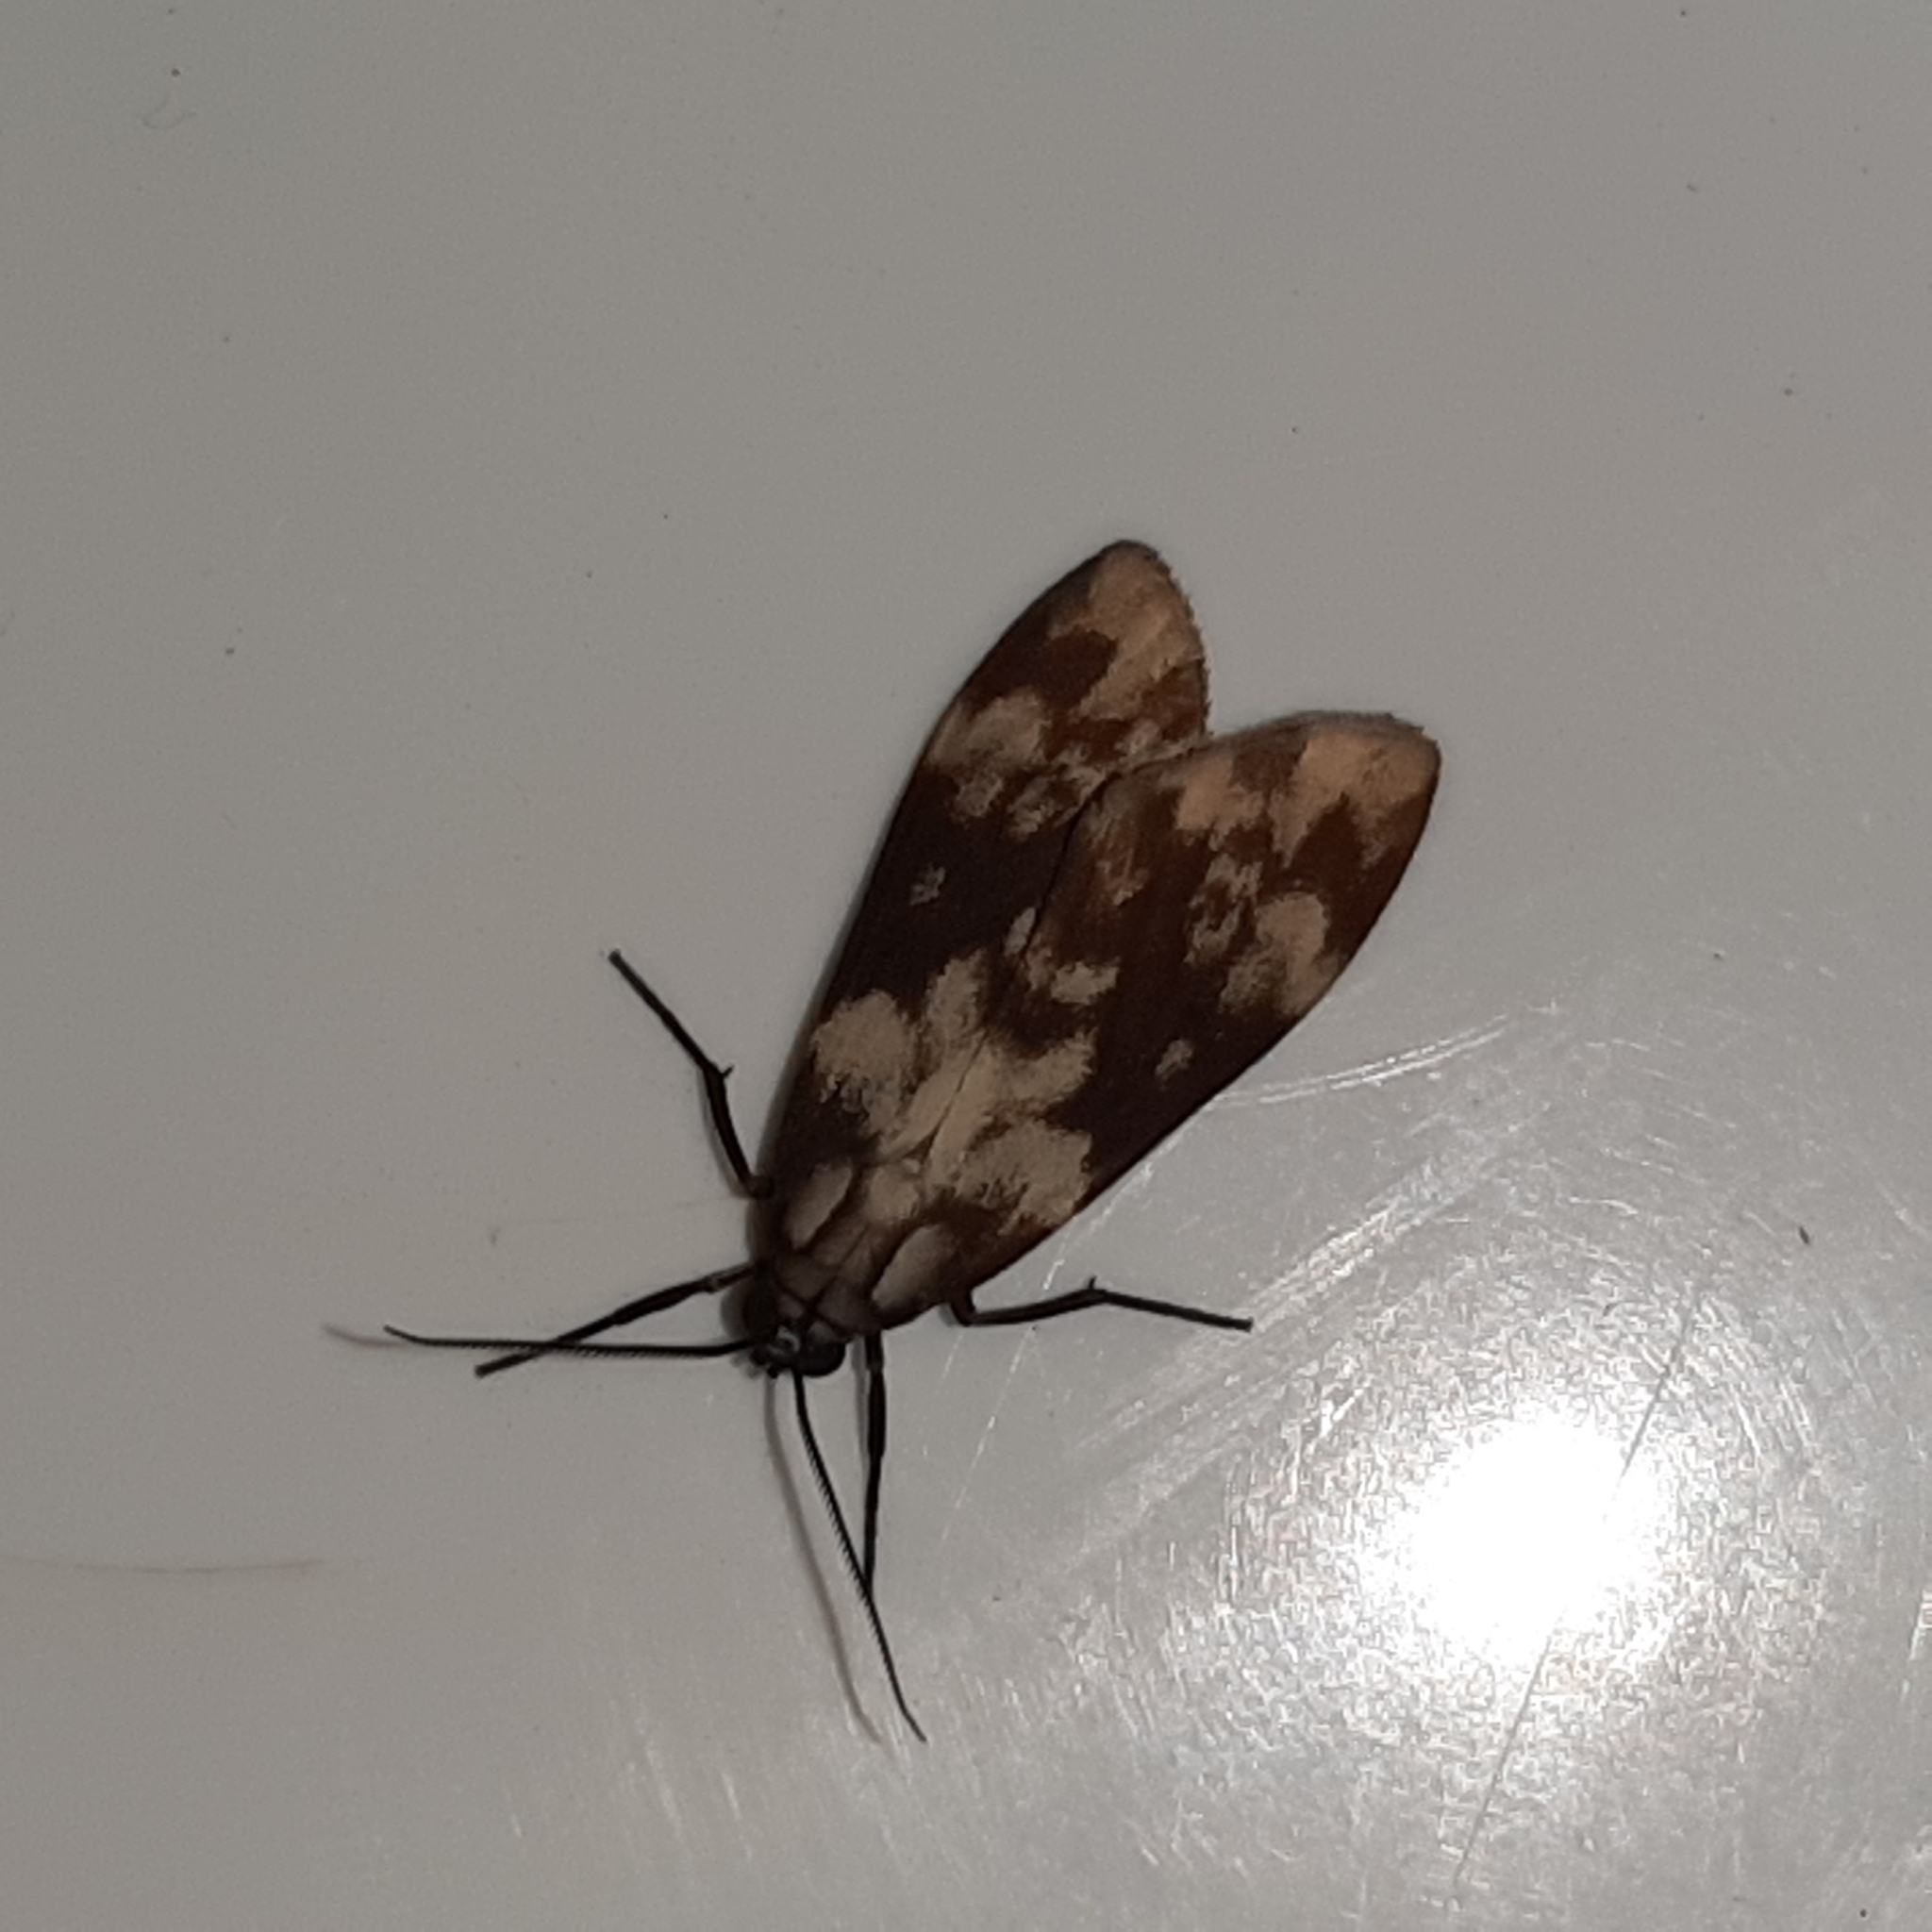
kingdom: Animalia
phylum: Arthropoda
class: Insecta
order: Lepidoptera
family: Erebidae
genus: Eucereon
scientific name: Eucereon discolor
